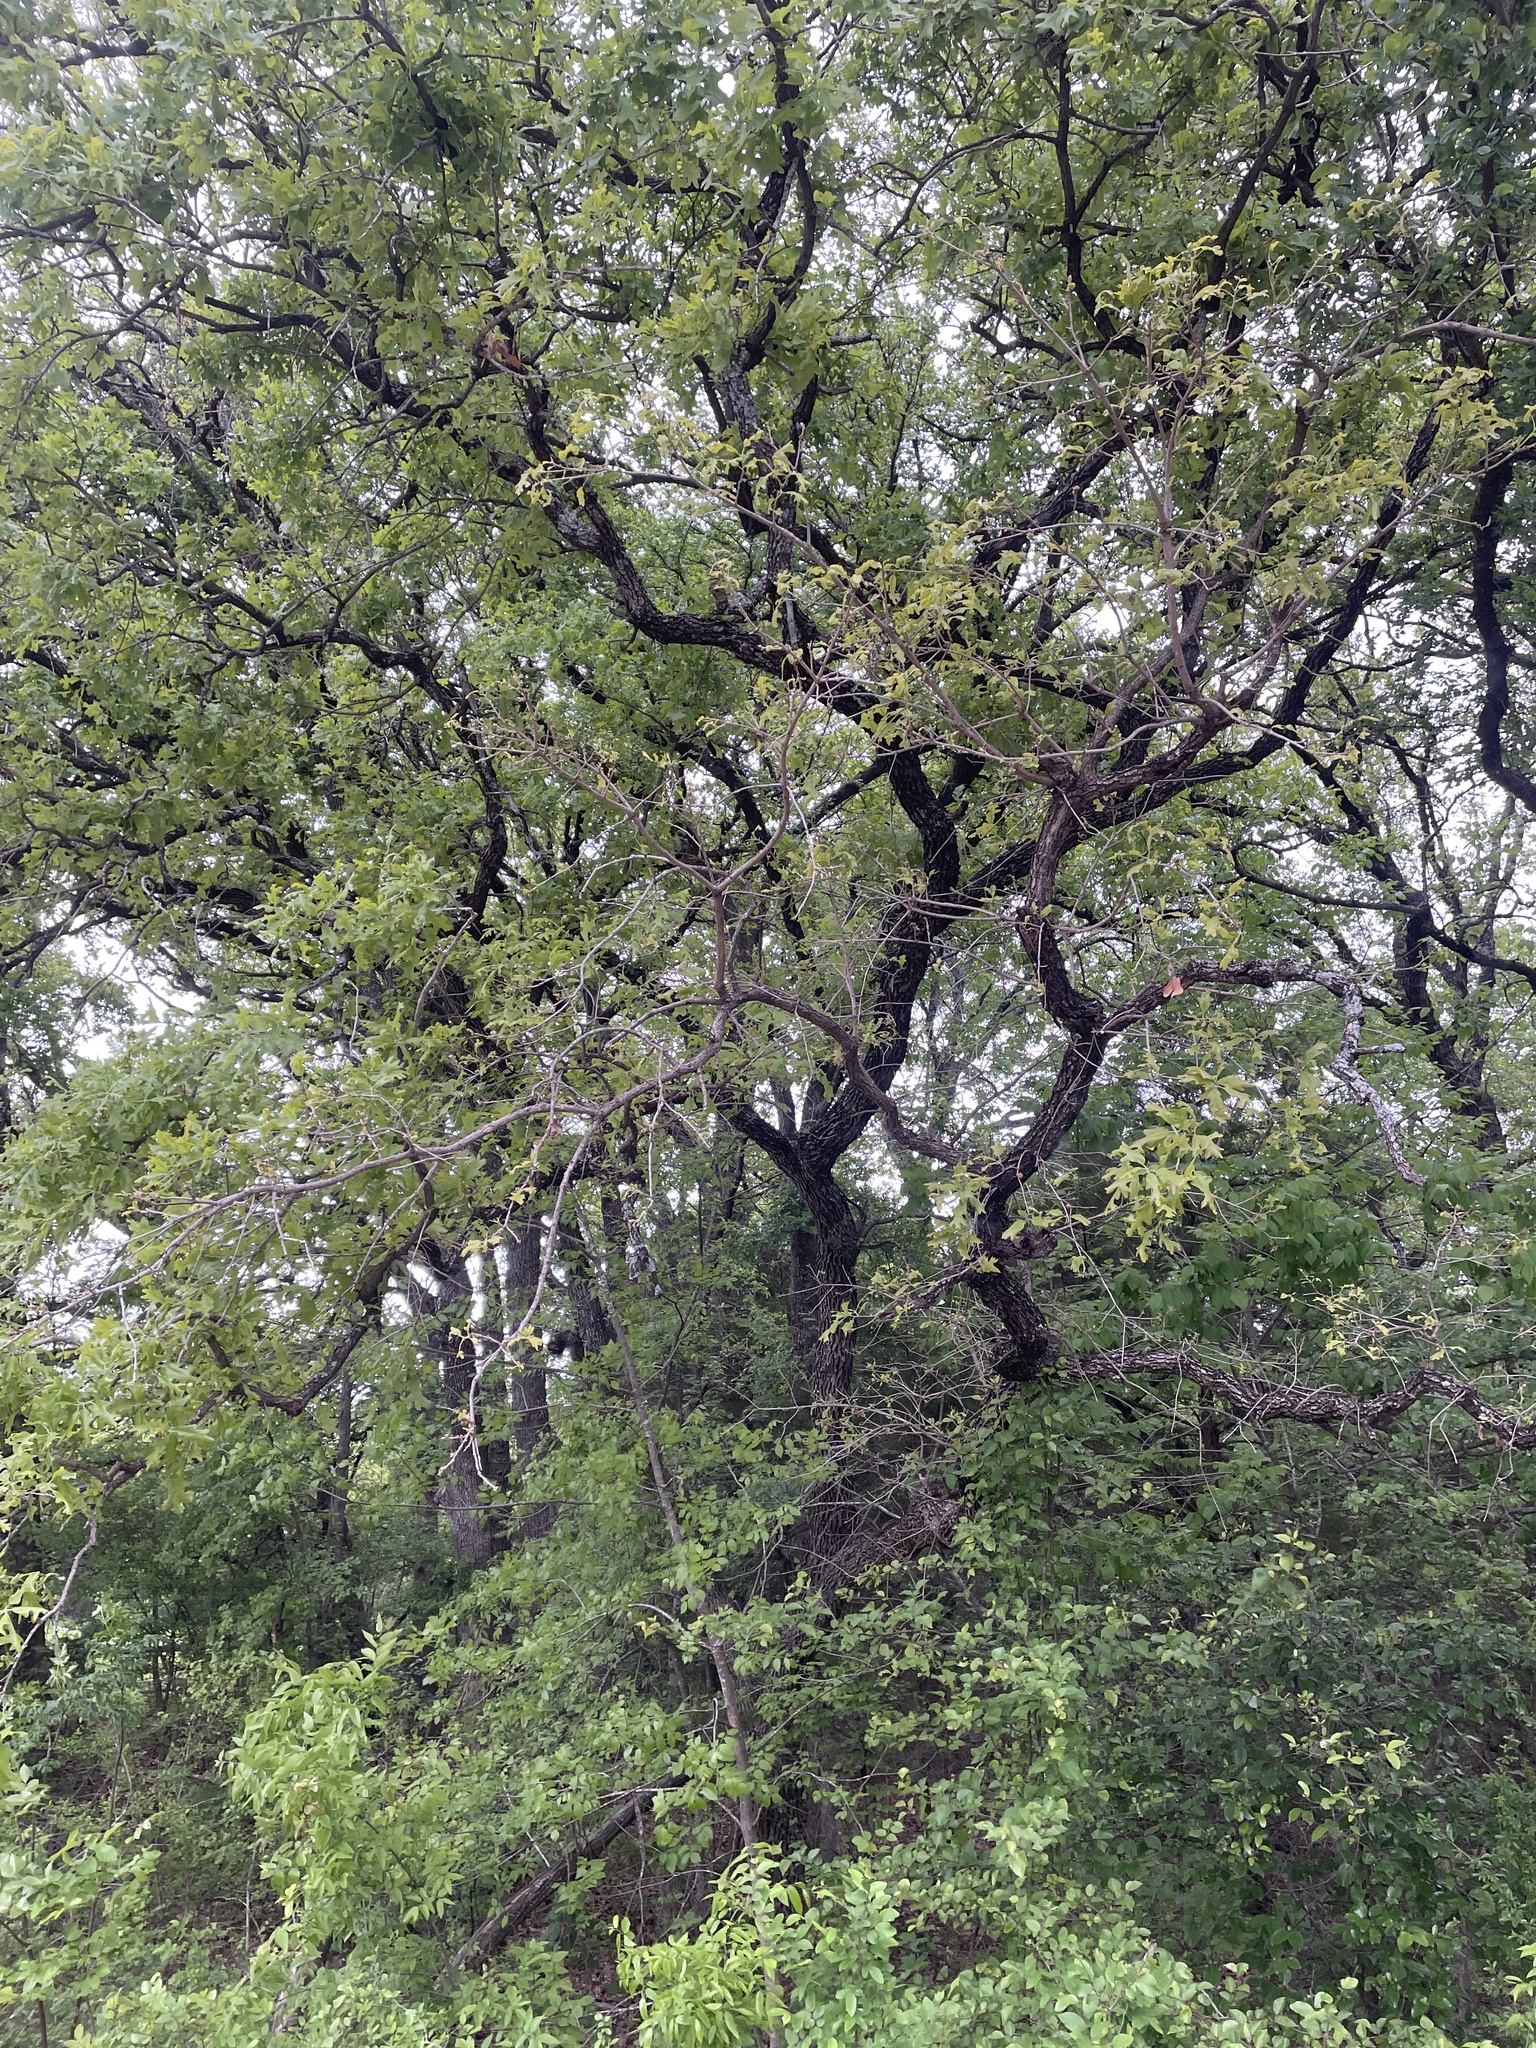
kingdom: Plantae
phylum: Tracheophyta
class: Magnoliopsida
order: Fagales
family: Fagaceae
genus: Quercus
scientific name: Quercus stellata
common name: Post oak
